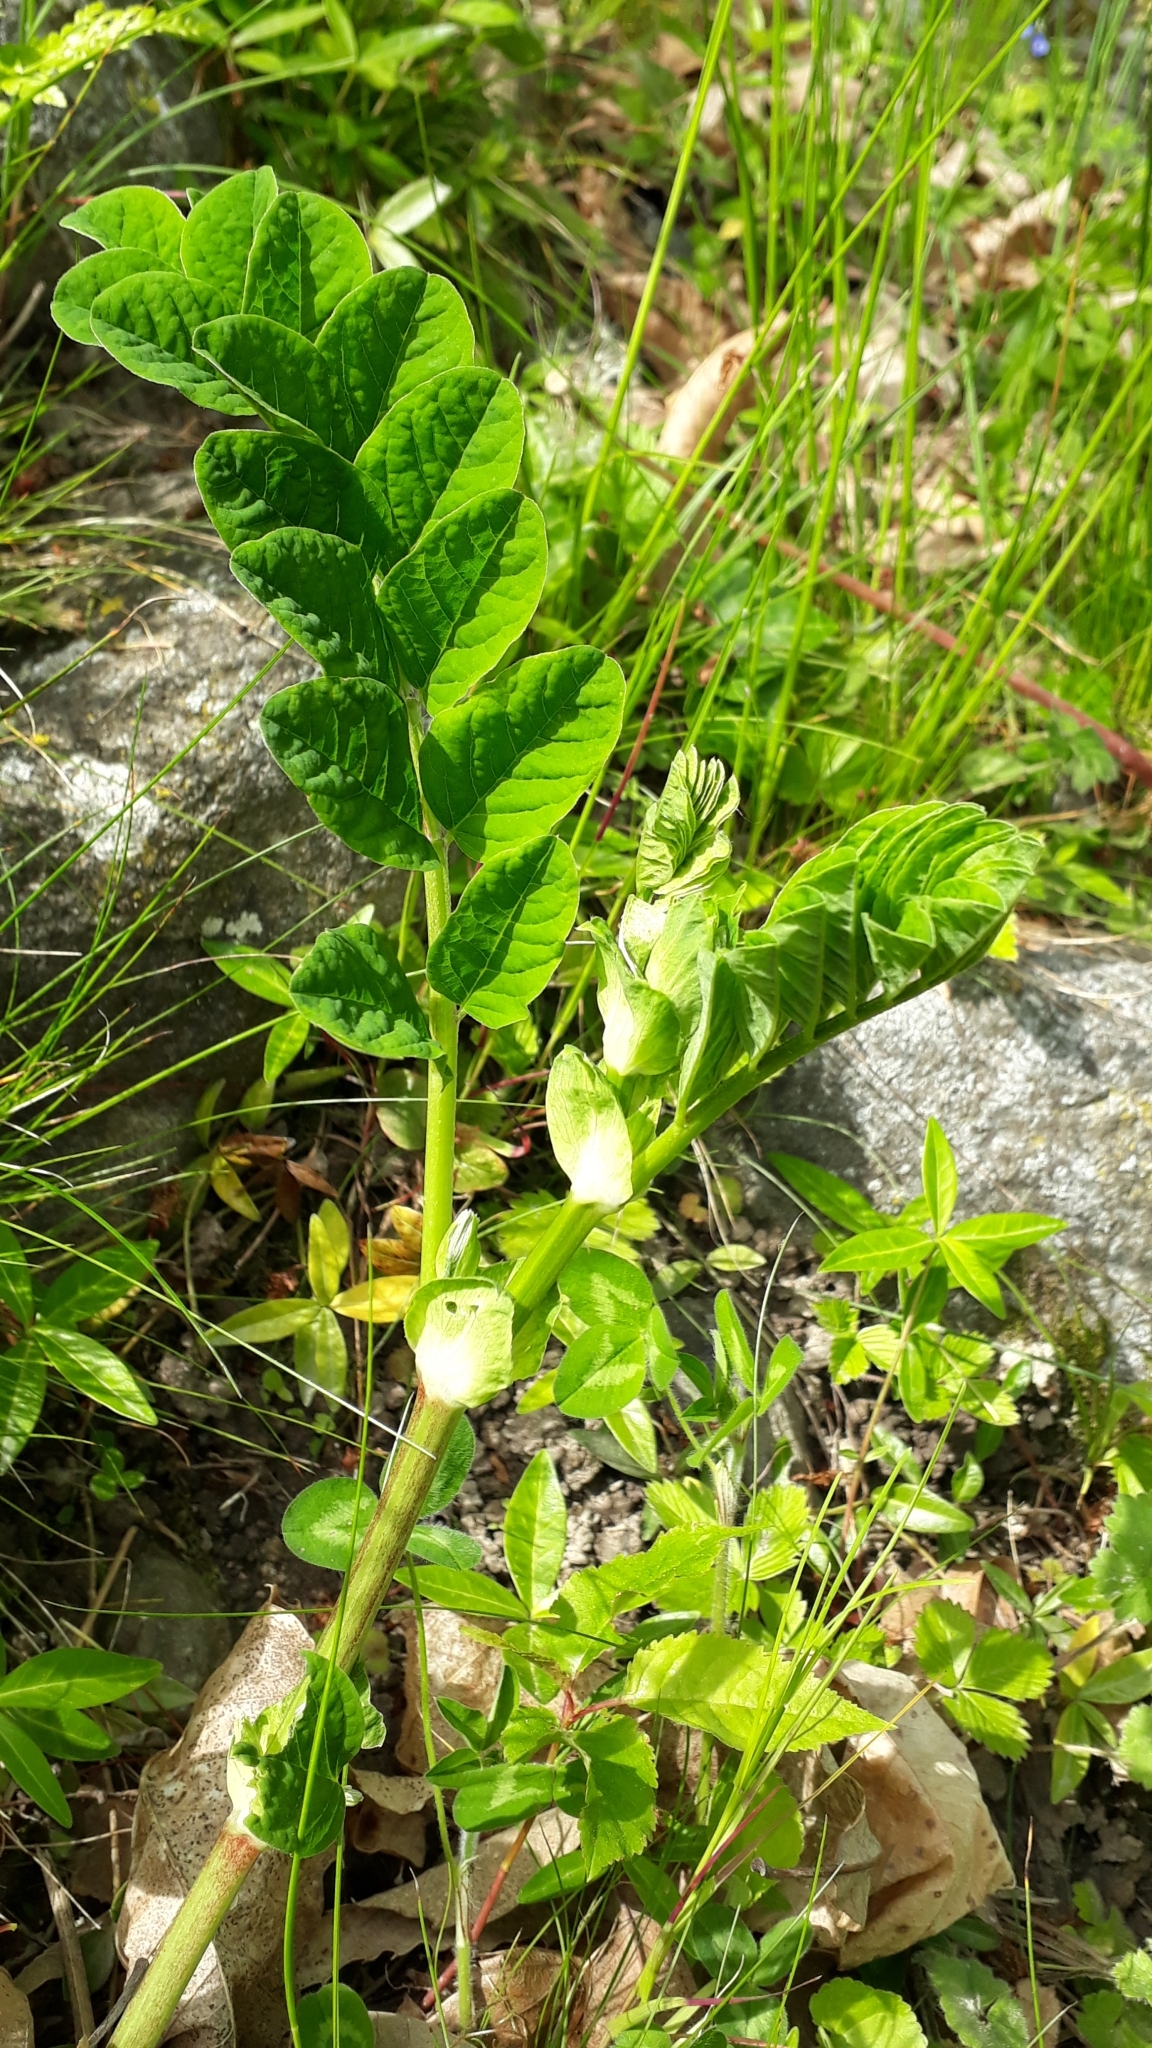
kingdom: Plantae
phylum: Tracheophyta
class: Magnoliopsida
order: Fabales
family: Fabaceae
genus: Astragalus
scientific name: Astragalus glycyphyllos
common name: Wild liquorice
